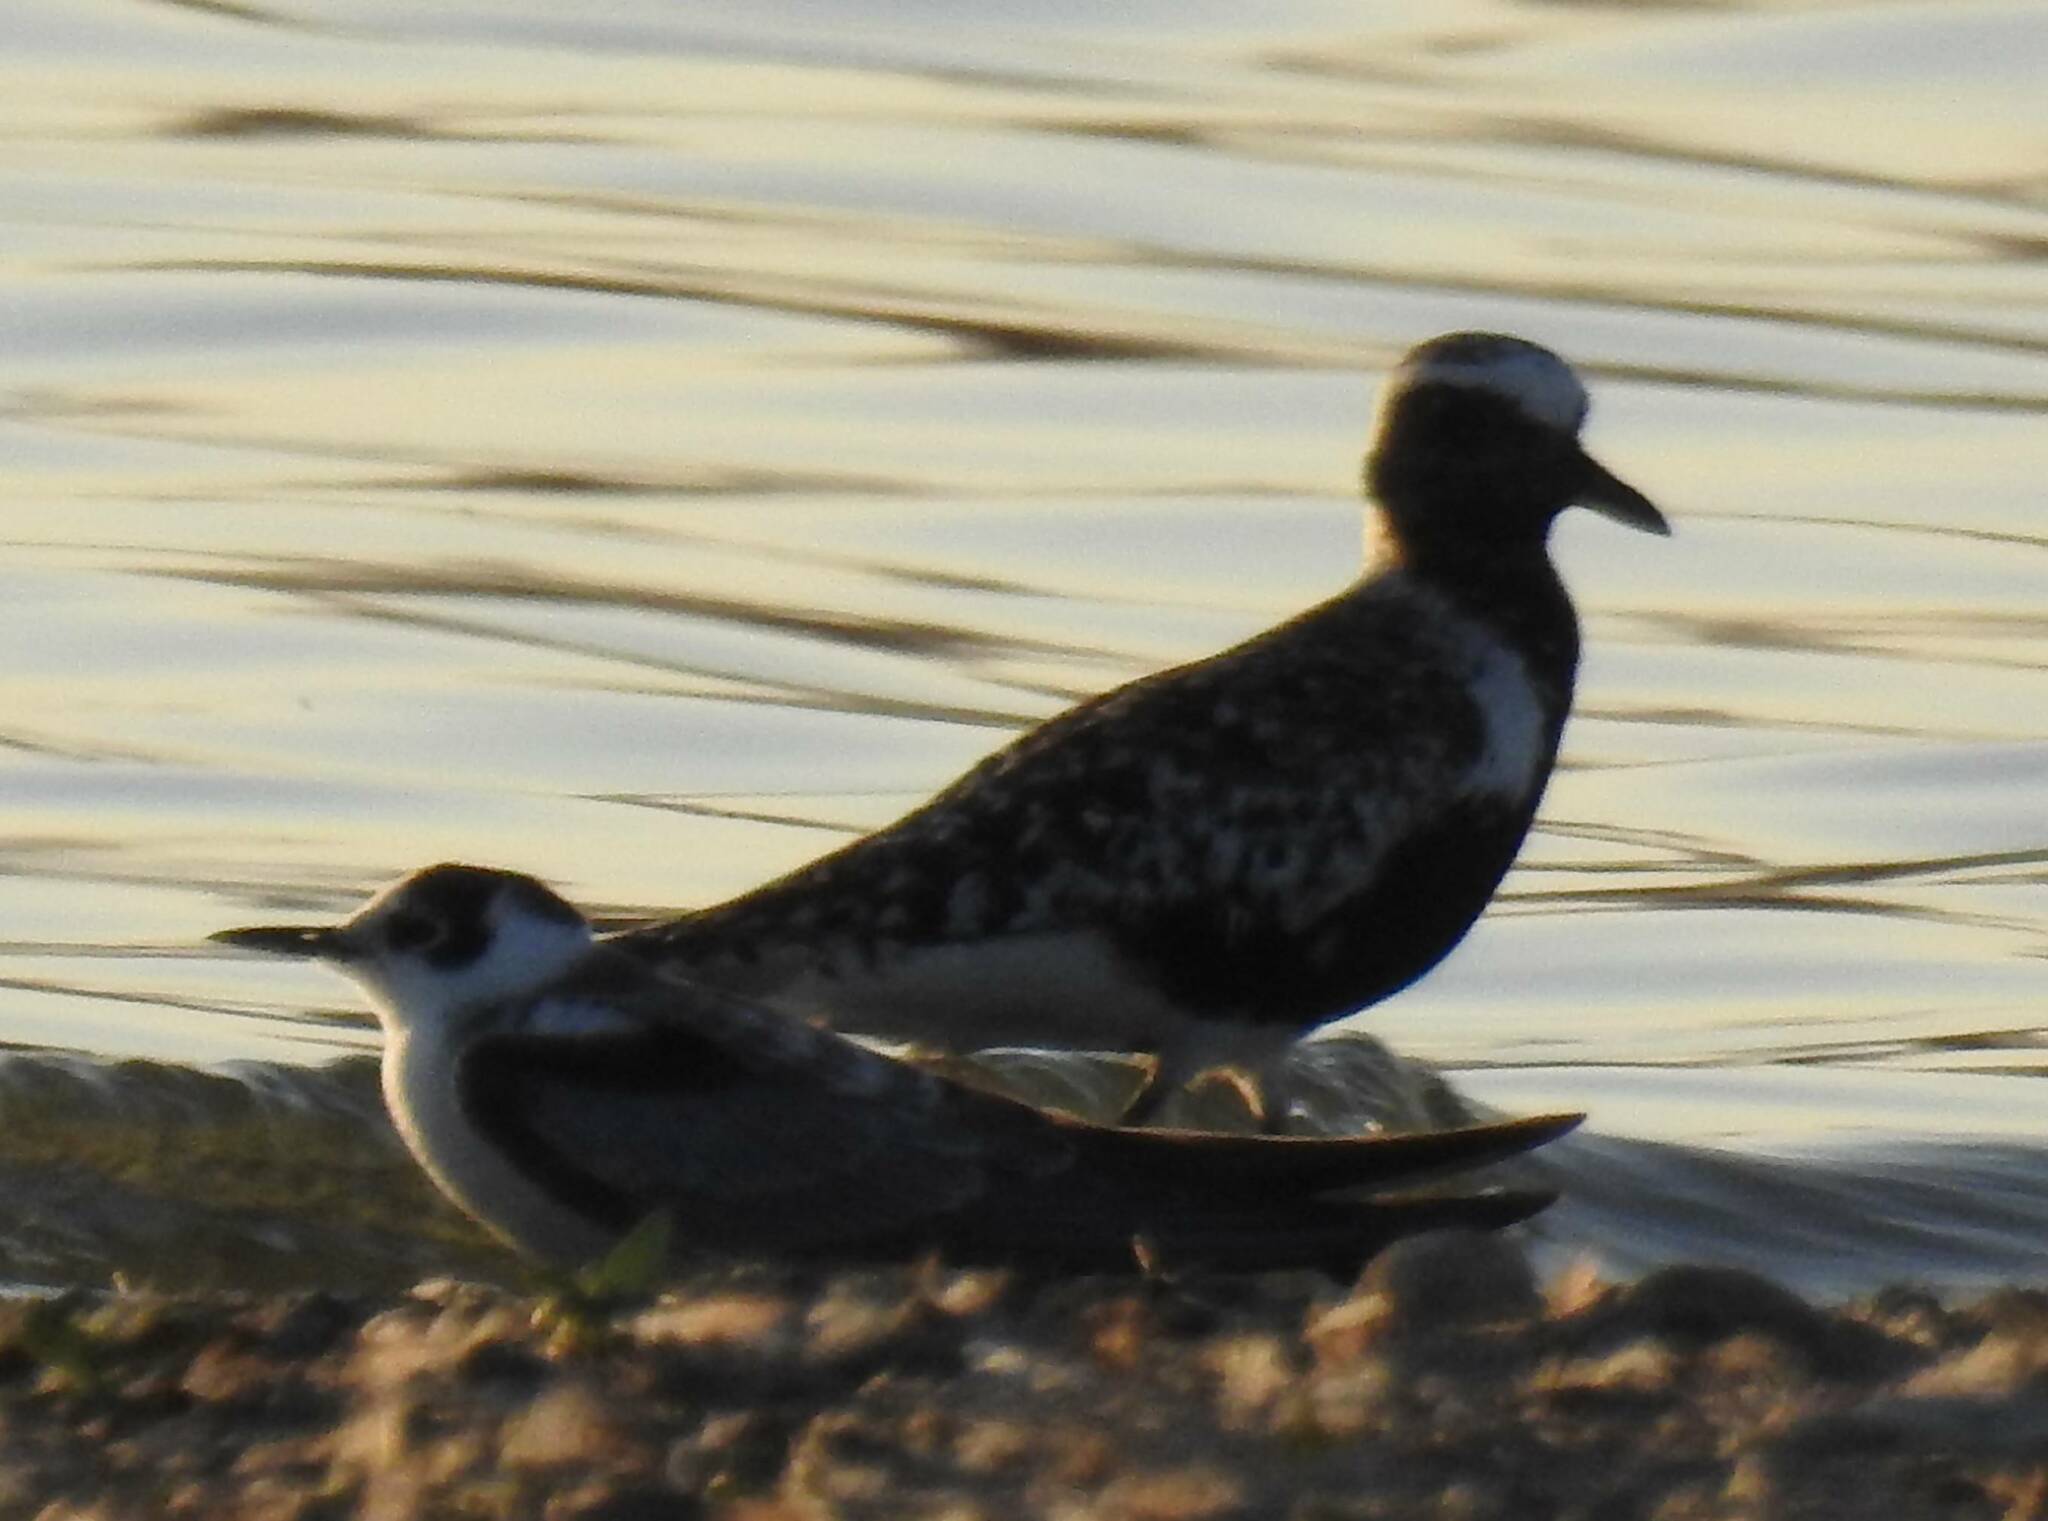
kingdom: Animalia
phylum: Chordata
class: Aves
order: Charadriiformes
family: Charadriidae
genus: Pluvialis
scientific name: Pluvialis squatarola
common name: Grey plover
